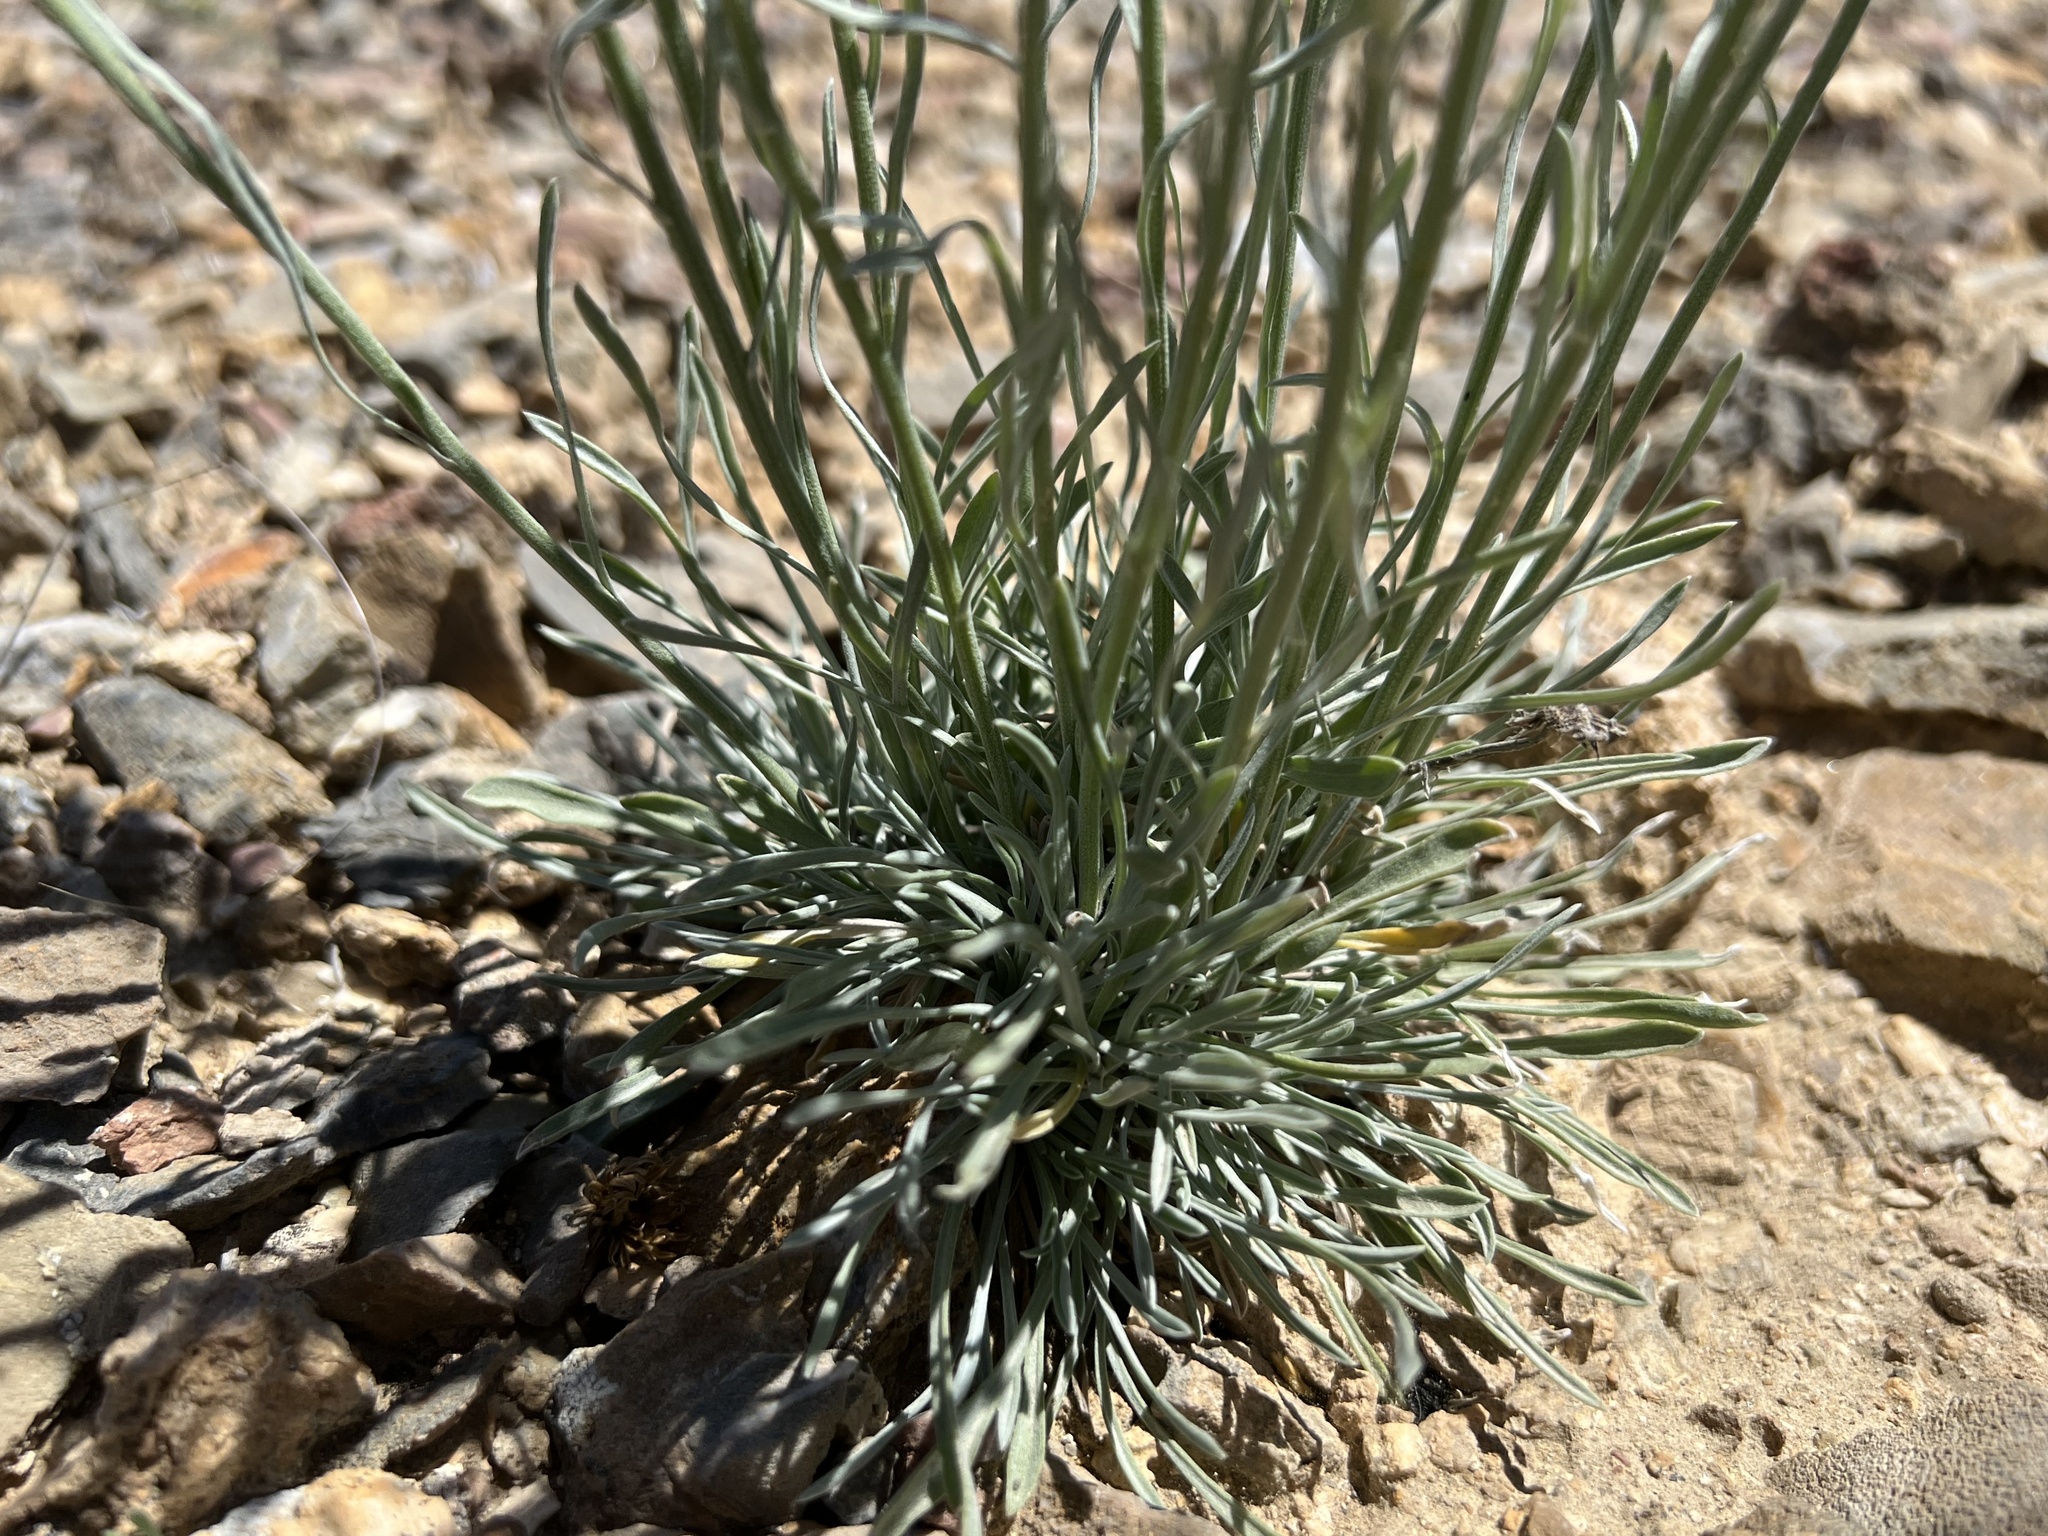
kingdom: Plantae
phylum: Tracheophyta
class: Magnoliopsida
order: Asterales
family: Asteraceae
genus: Erigeron
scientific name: Erigeron argentatus
